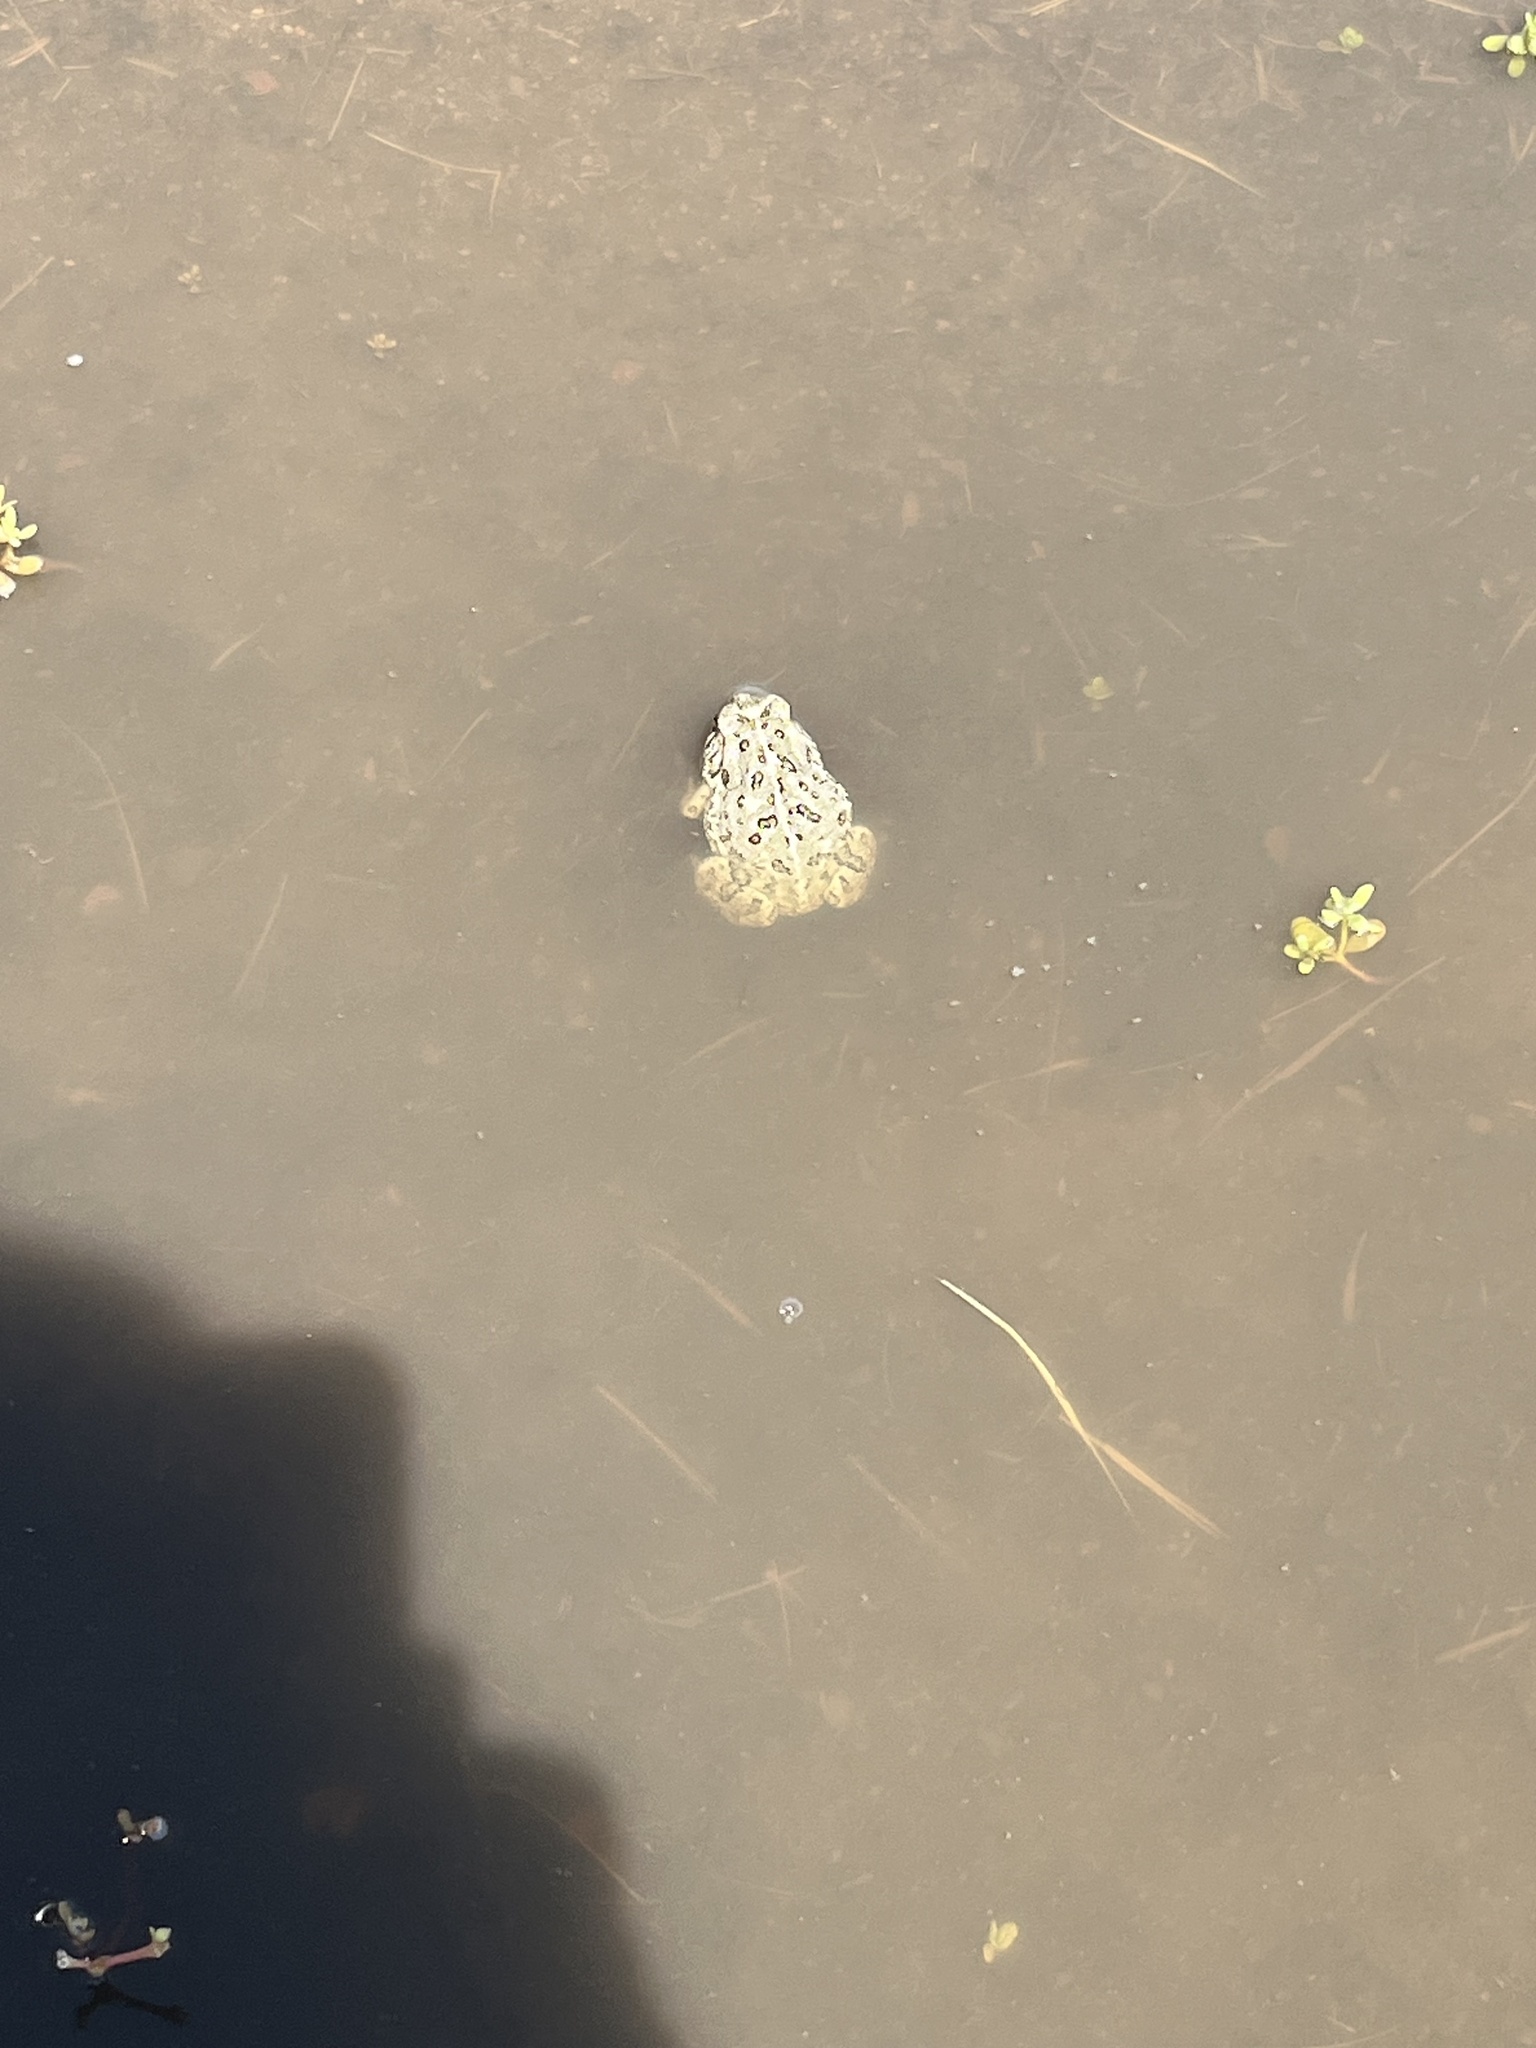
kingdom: Animalia
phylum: Chordata
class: Amphibia
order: Anura
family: Bufonidae
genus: Anaxyrus
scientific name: Anaxyrus woodhousii
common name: Woodhouse's toad
